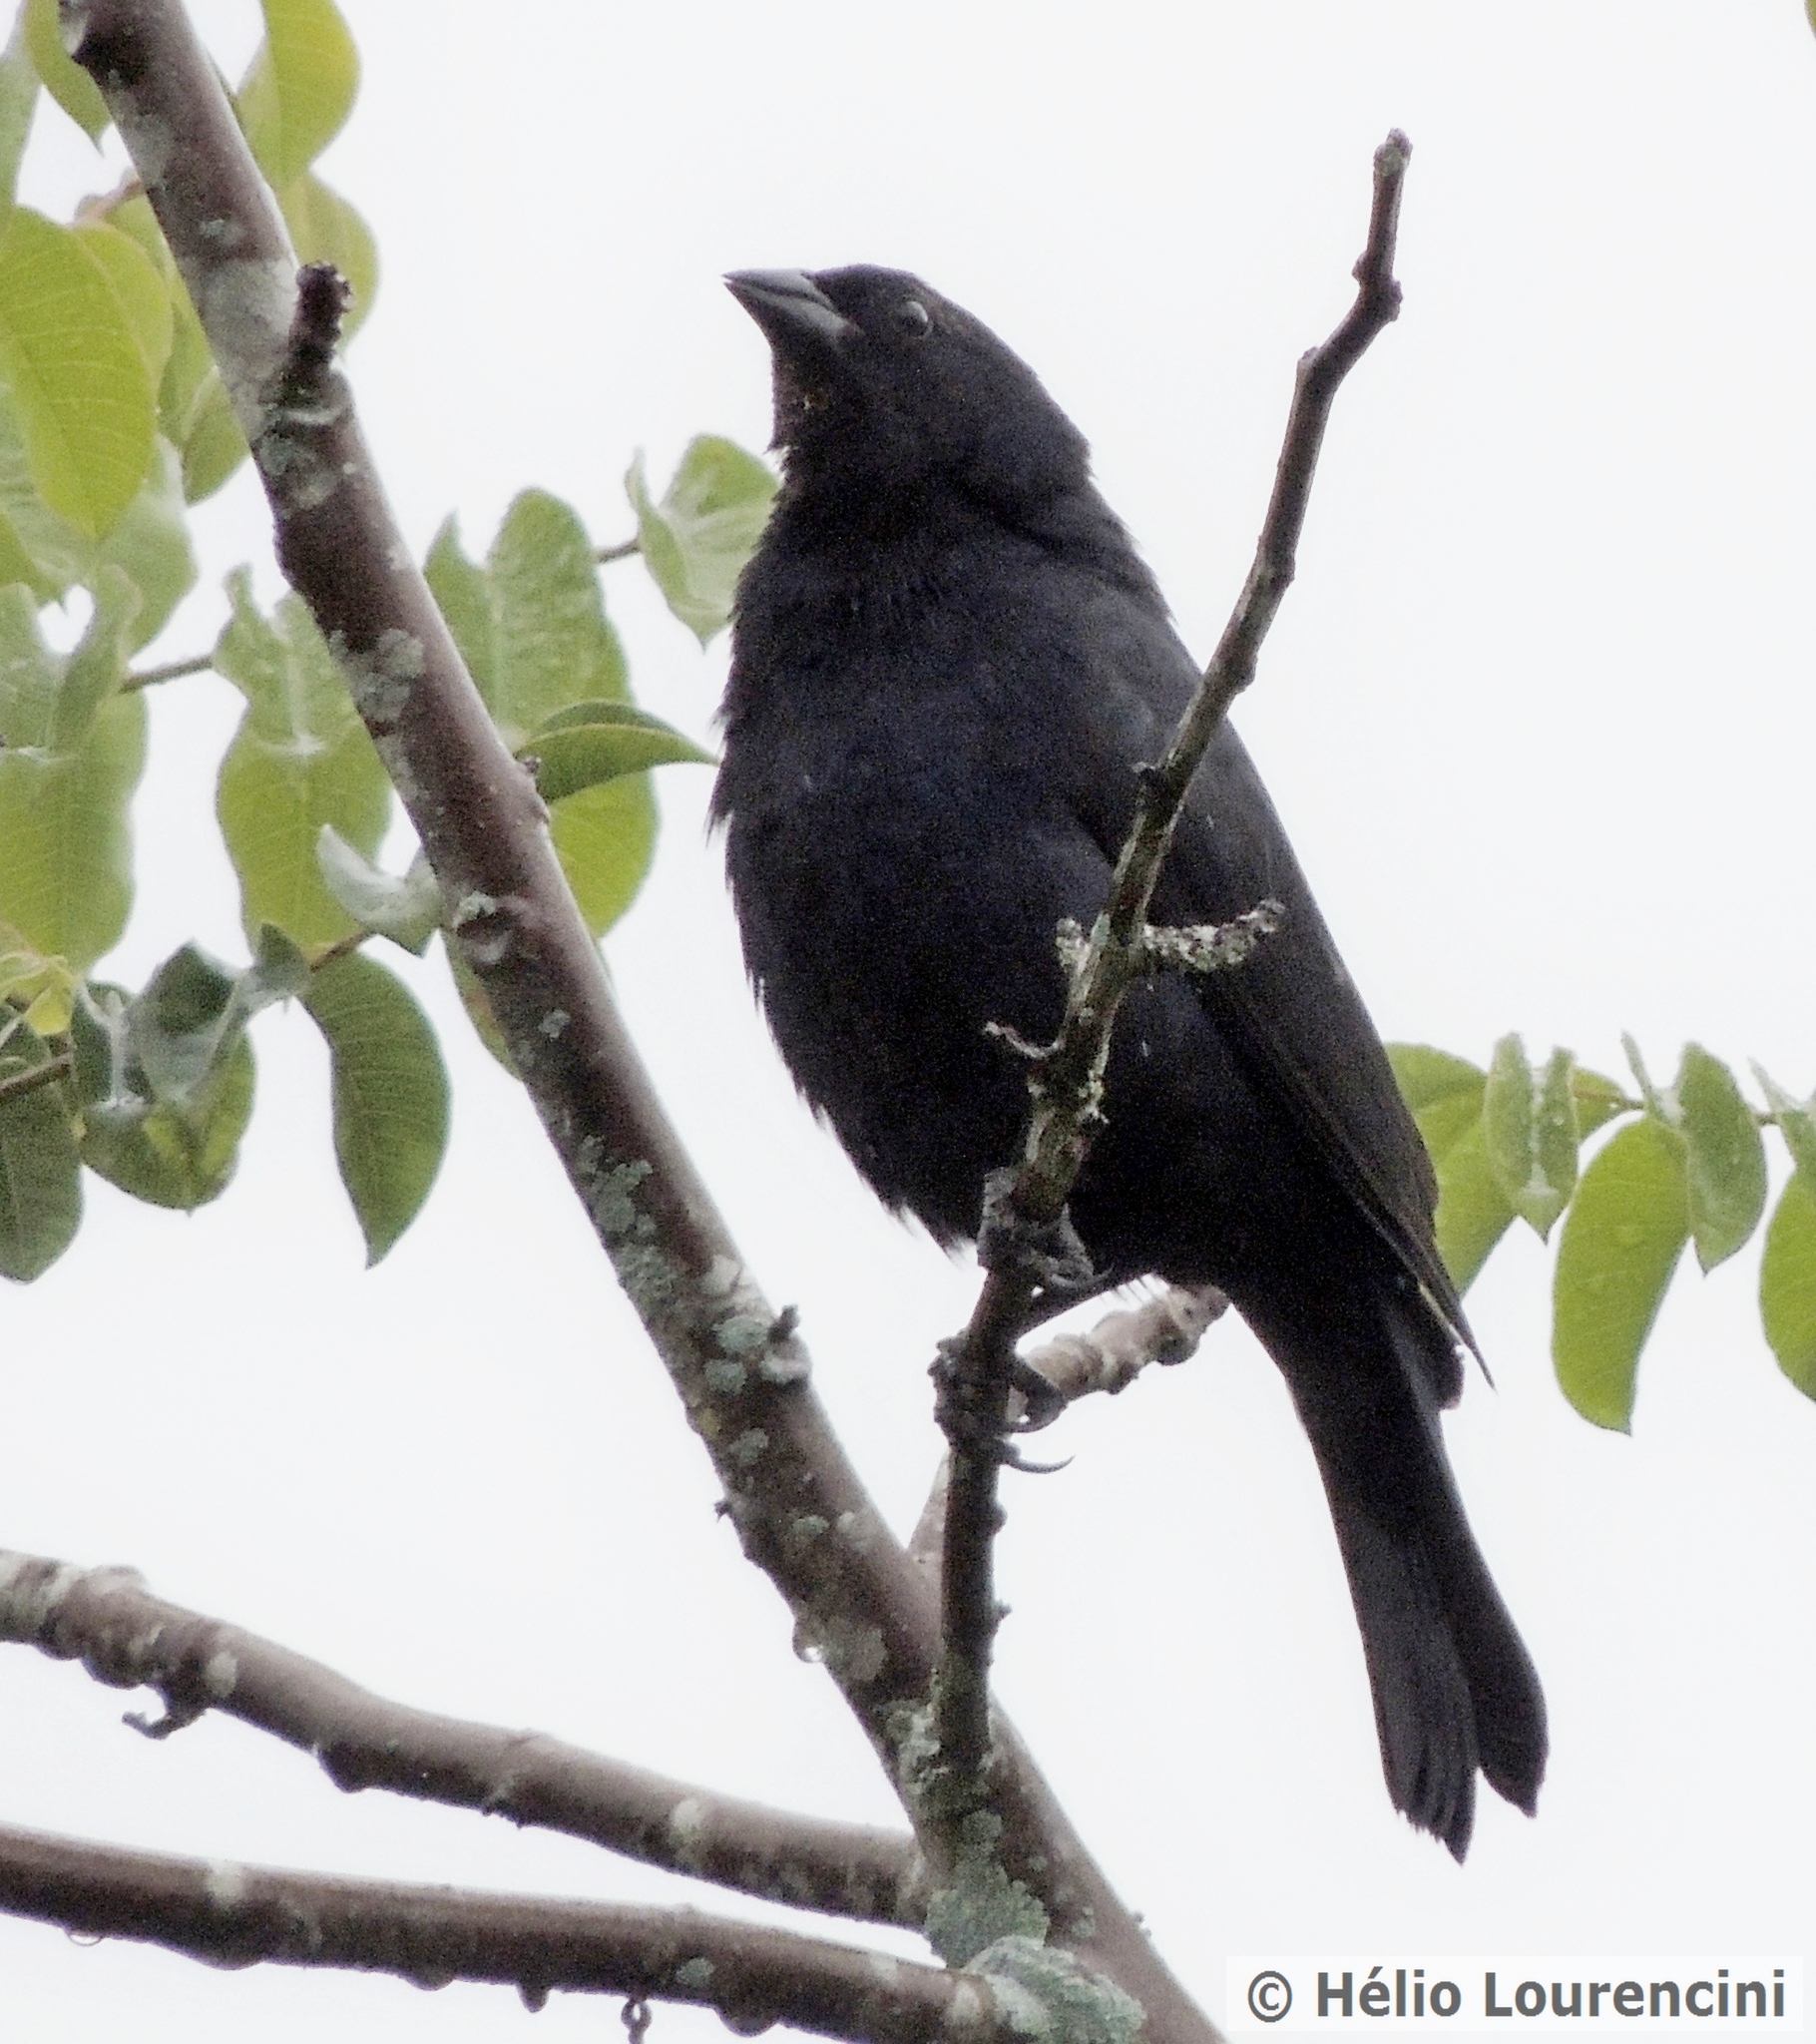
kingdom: Animalia
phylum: Chordata
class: Aves
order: Passeriformes
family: Icteridae
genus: Molothrus
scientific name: Molothrus bonariensis
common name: Shiny cowbird
